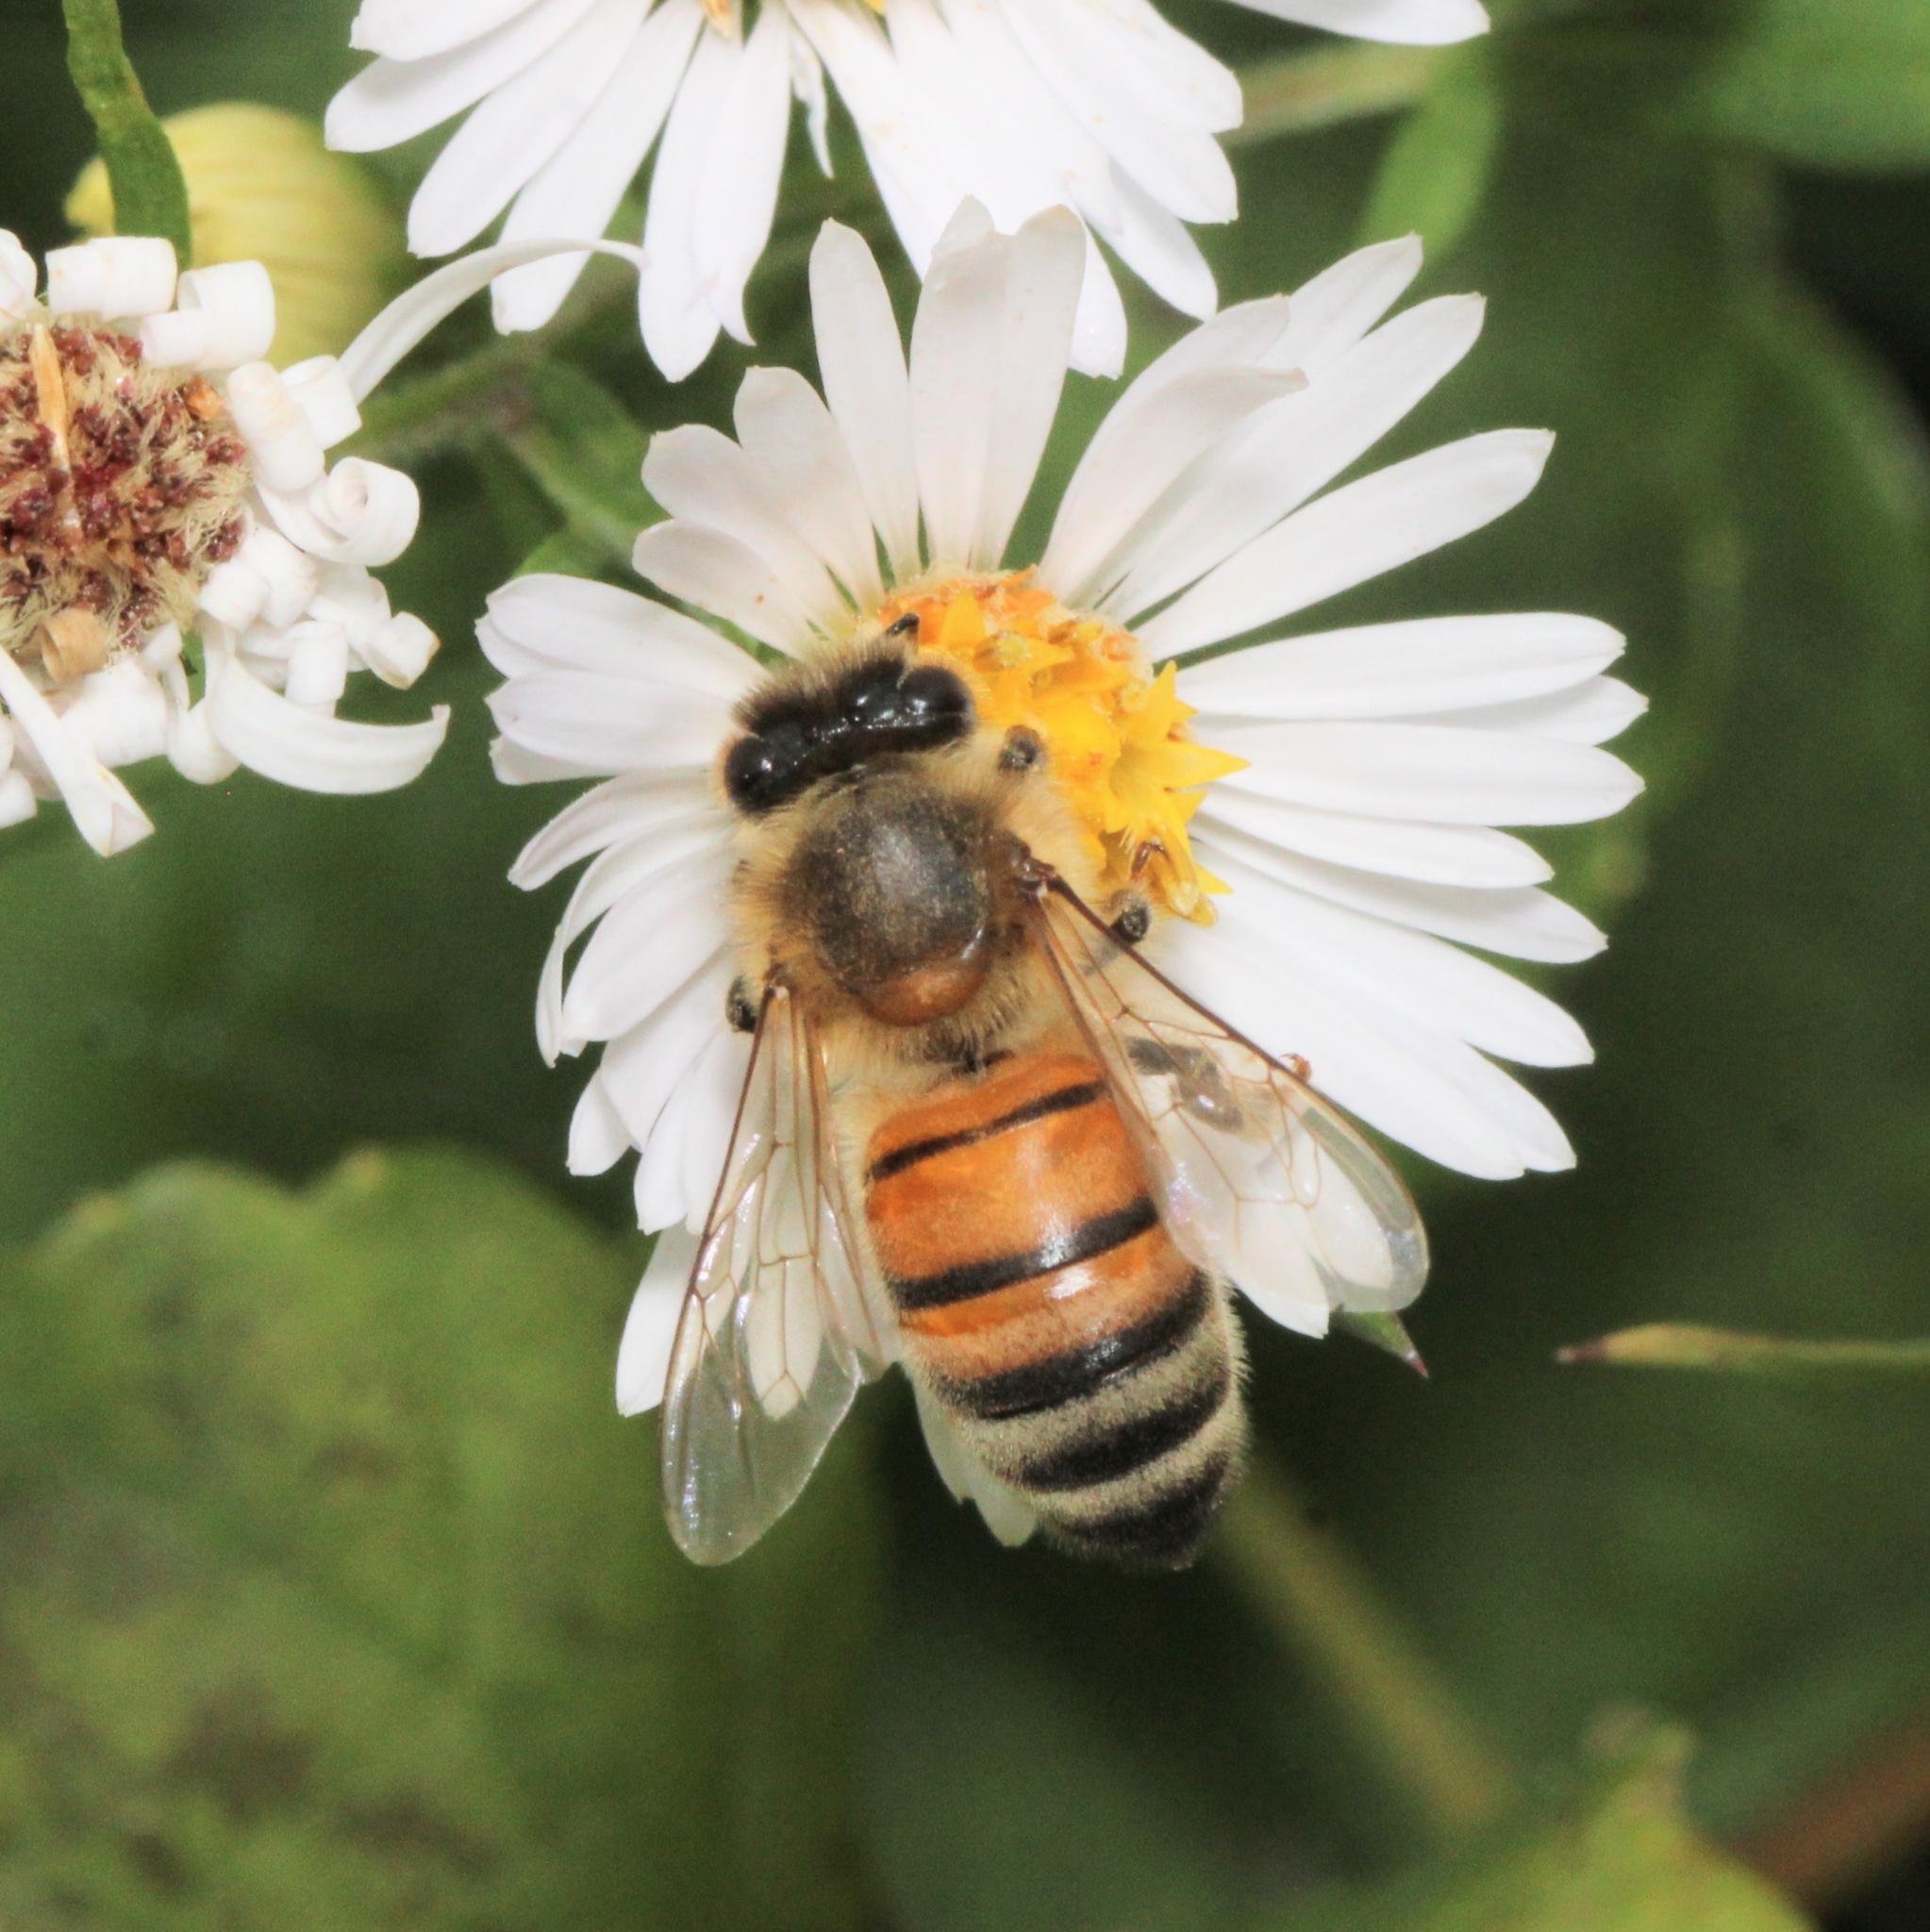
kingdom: Animalia
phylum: Arthropoda
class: Insecta
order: Hymenoptera
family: Apidae
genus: Apis
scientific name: Apis mellifera
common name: Honey bee
